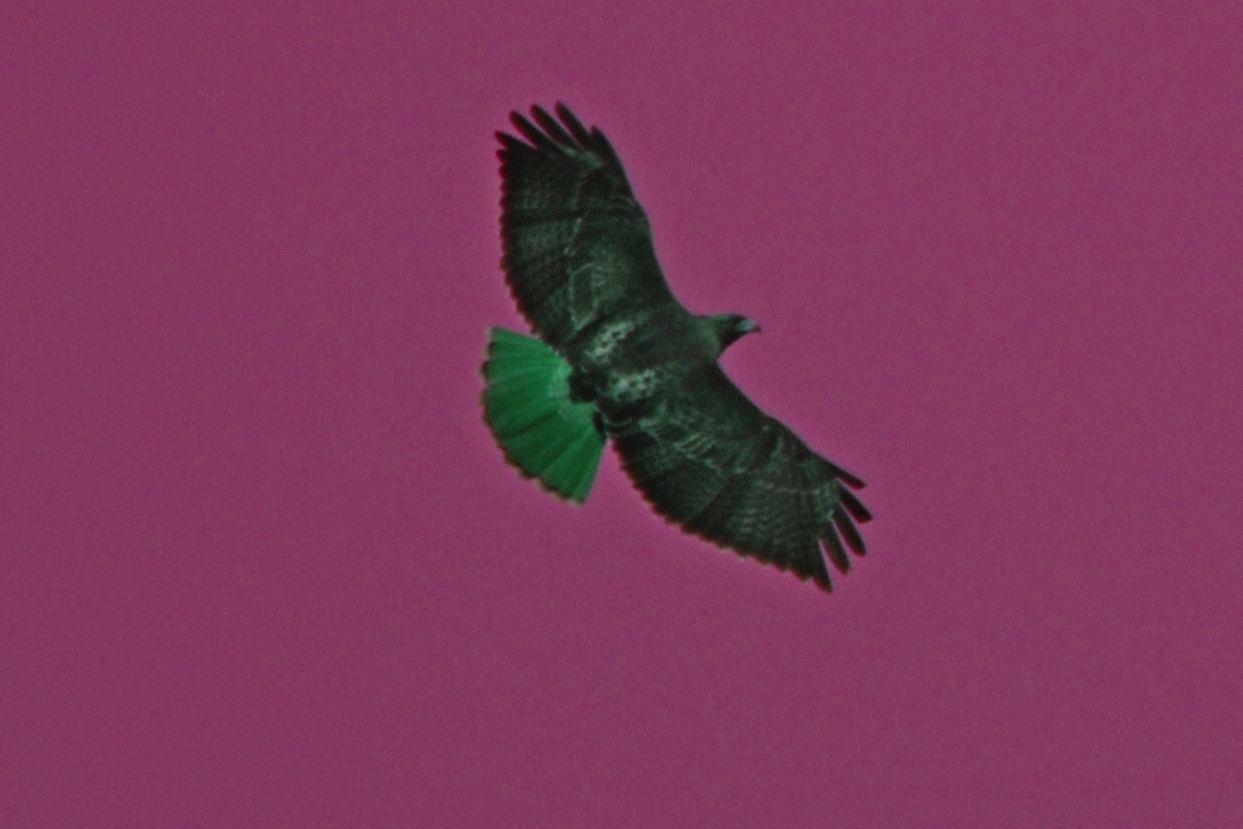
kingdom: Animalia
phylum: Chordata
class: Aves
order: Accipitriformes
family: Accipitridae
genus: Buteo
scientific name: Buteo jamaicensis
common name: Red-tailed hawk
